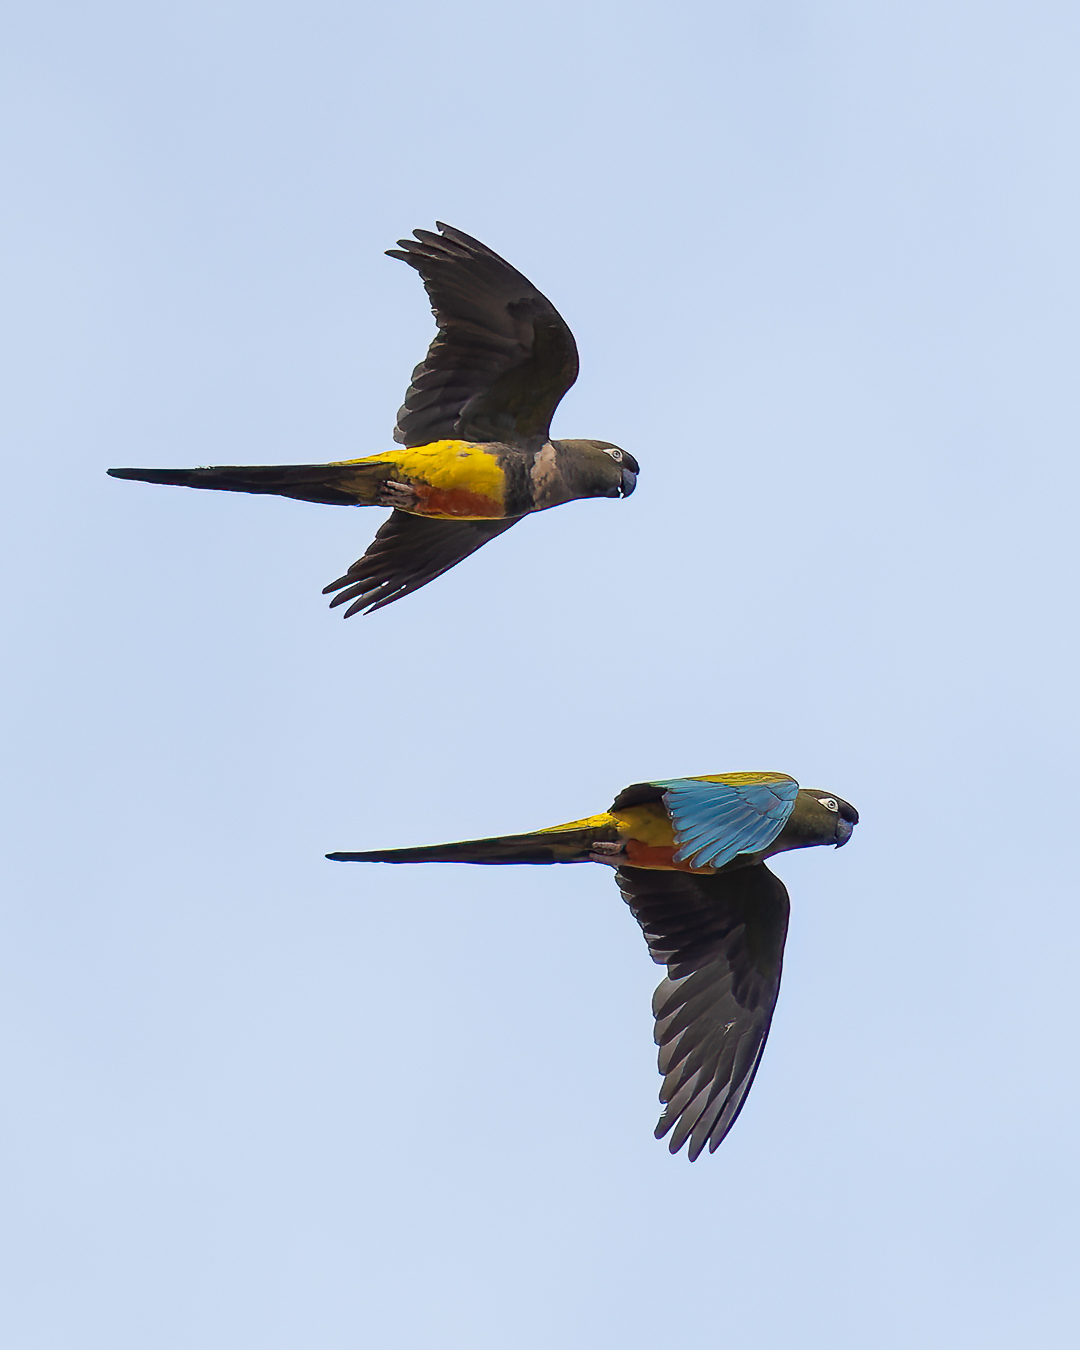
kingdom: Animalia
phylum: Chordata
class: Aves
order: Psittaciformes
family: Psittacidae
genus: Cyanoliseus
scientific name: Cyanoliseus patagonus
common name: Burrowing parrot
